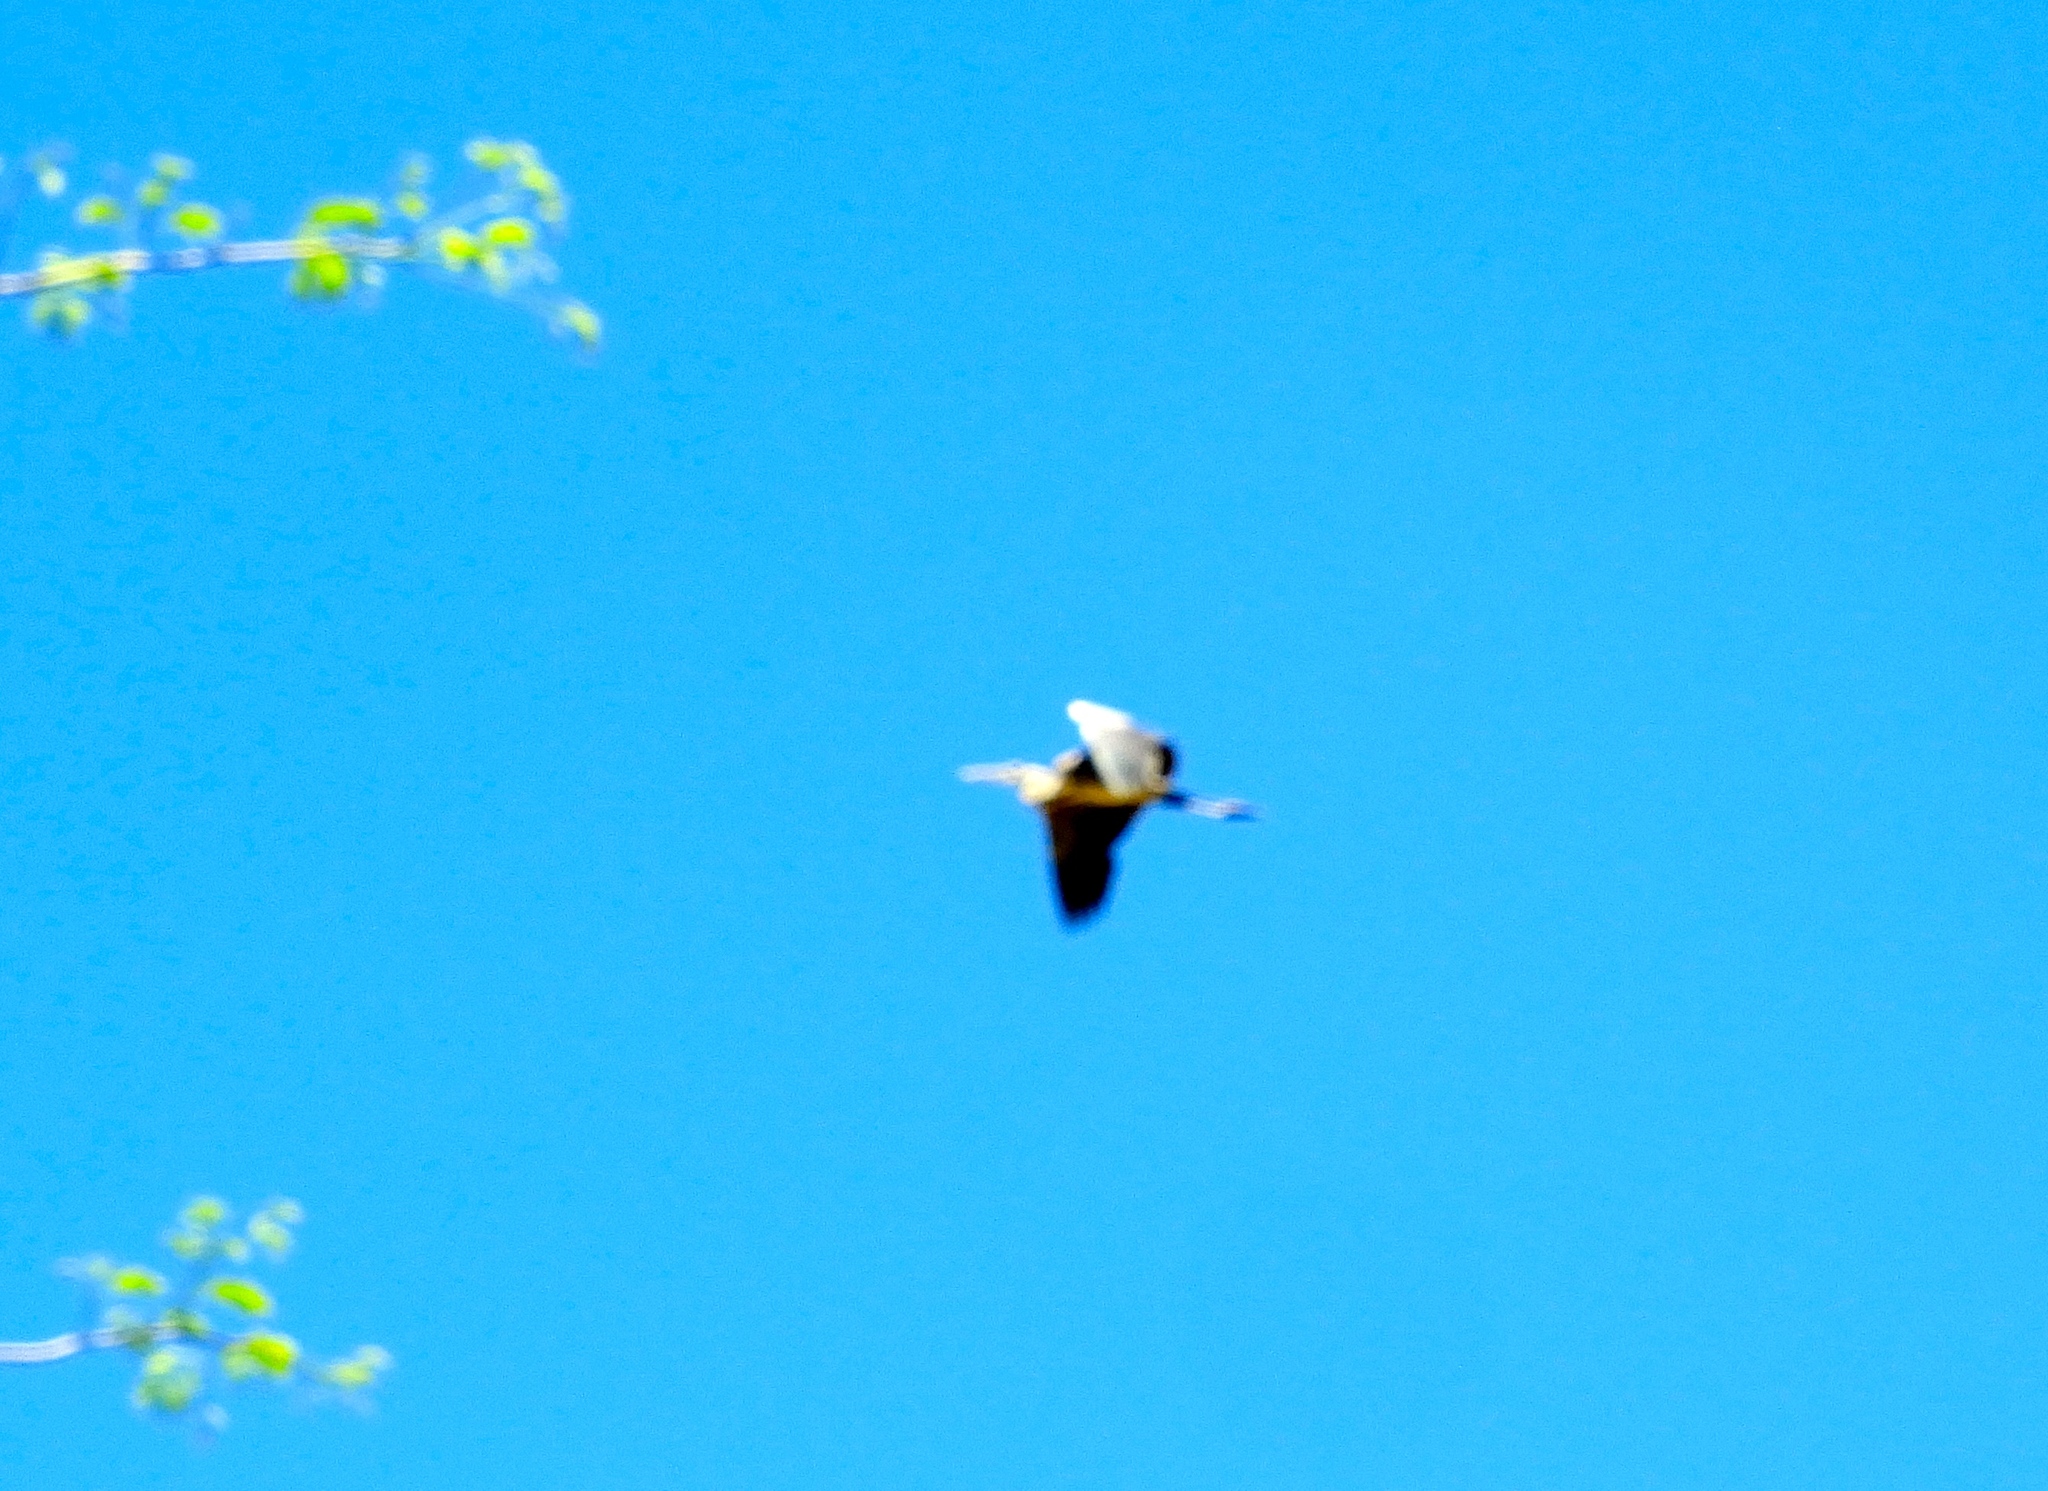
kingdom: Animalia
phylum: Chordata
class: Aves
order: Pelecaniformes
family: Ardeidae
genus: Ardea
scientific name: Ardea herodias
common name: Great blue heron
